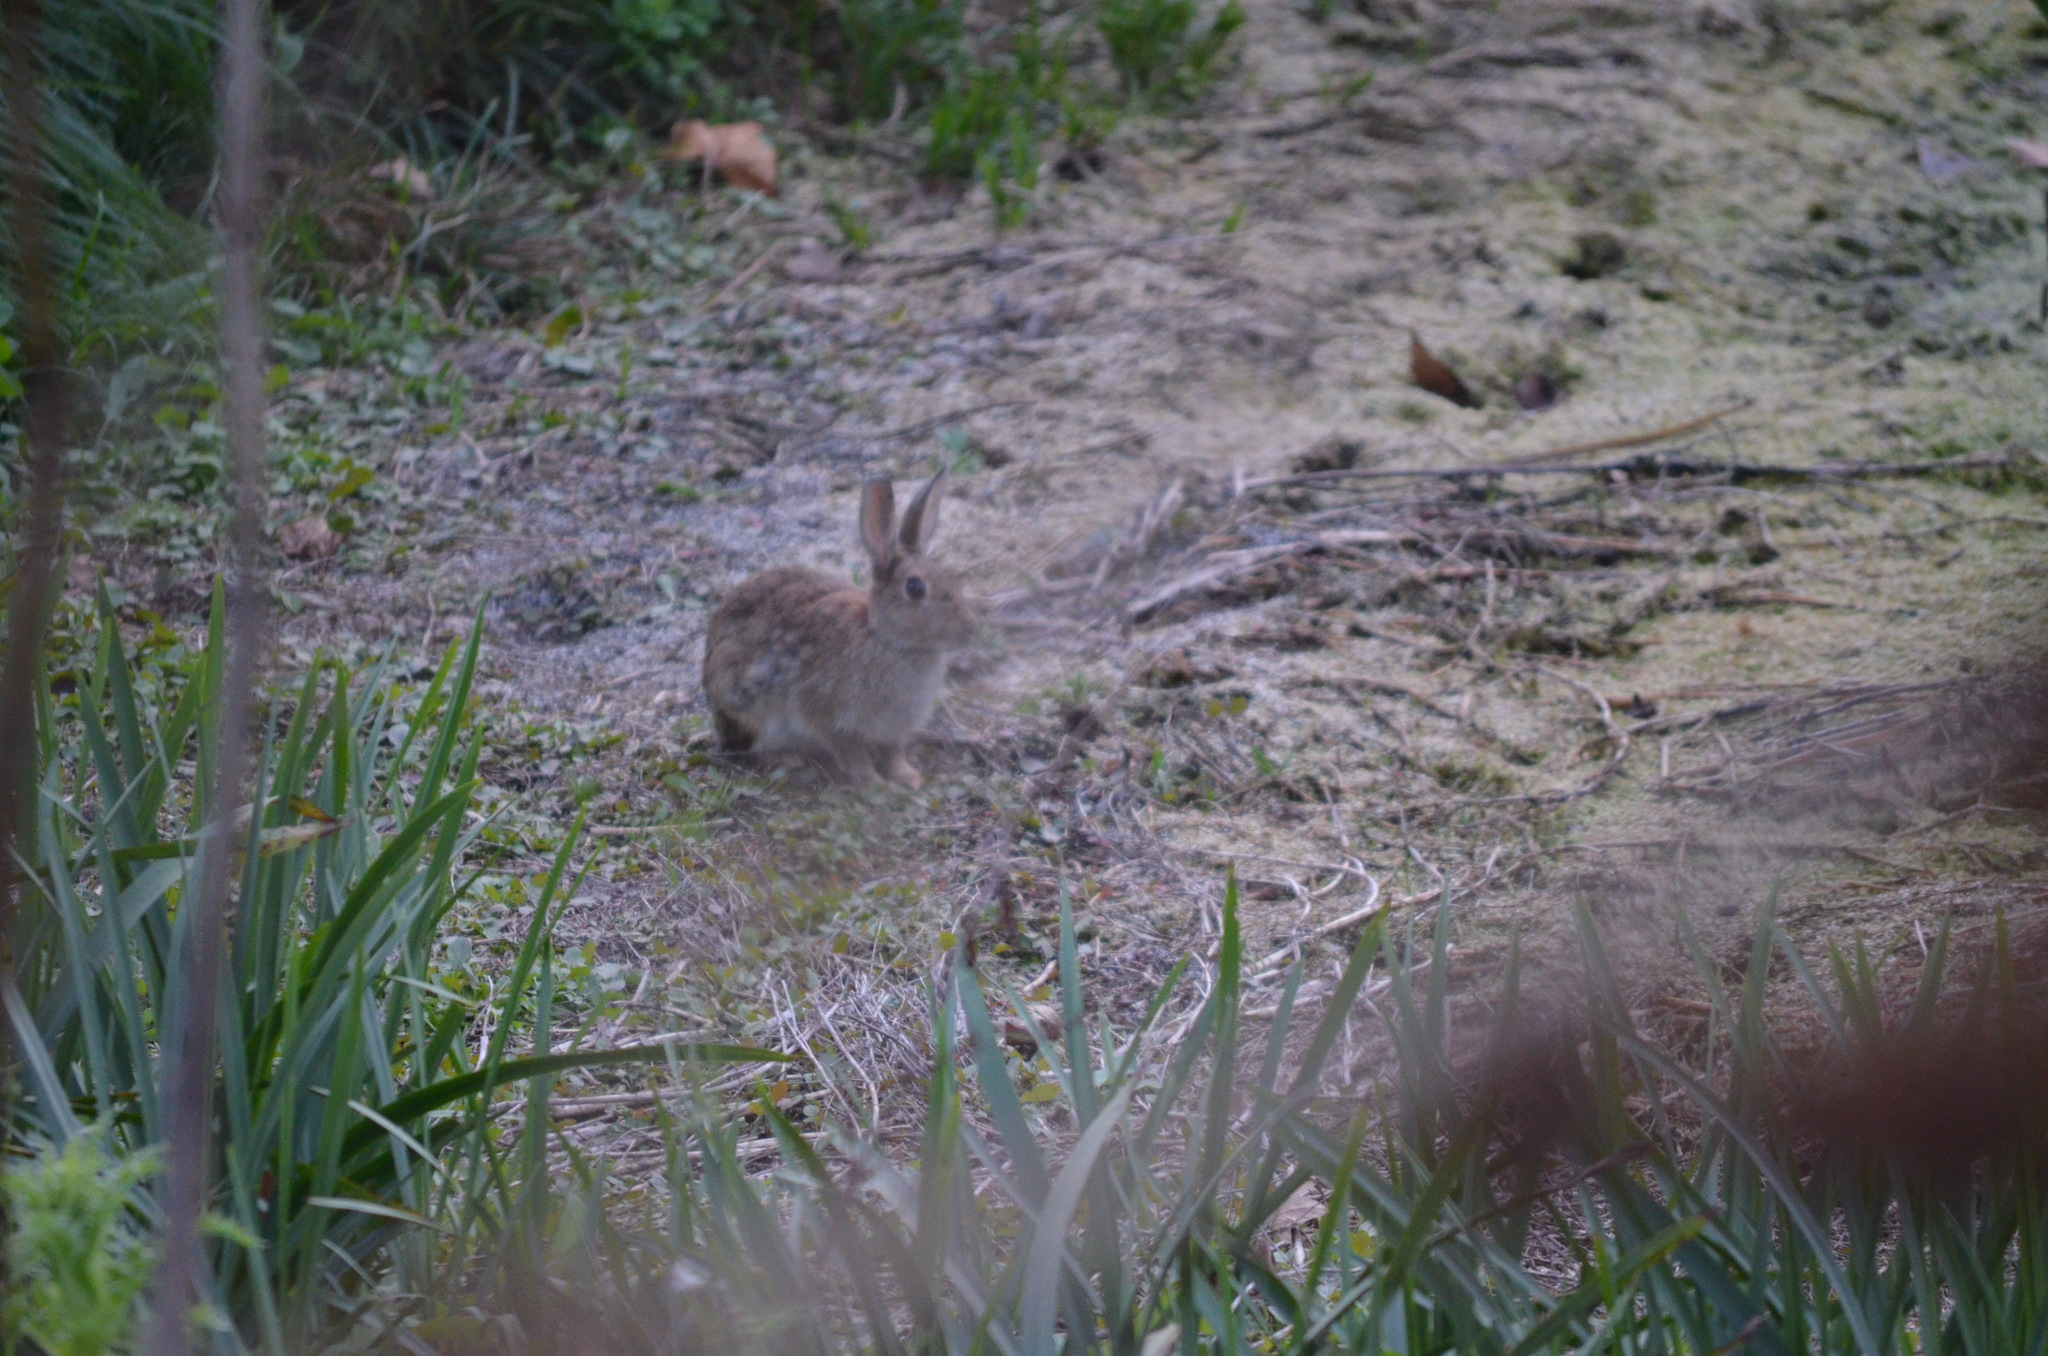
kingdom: Animalia
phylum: Chordata
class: Mammalia
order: Lagomorpha
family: Leporidae
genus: Oryctolagus
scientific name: Oryctolagus cuniculus
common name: European rabbit
